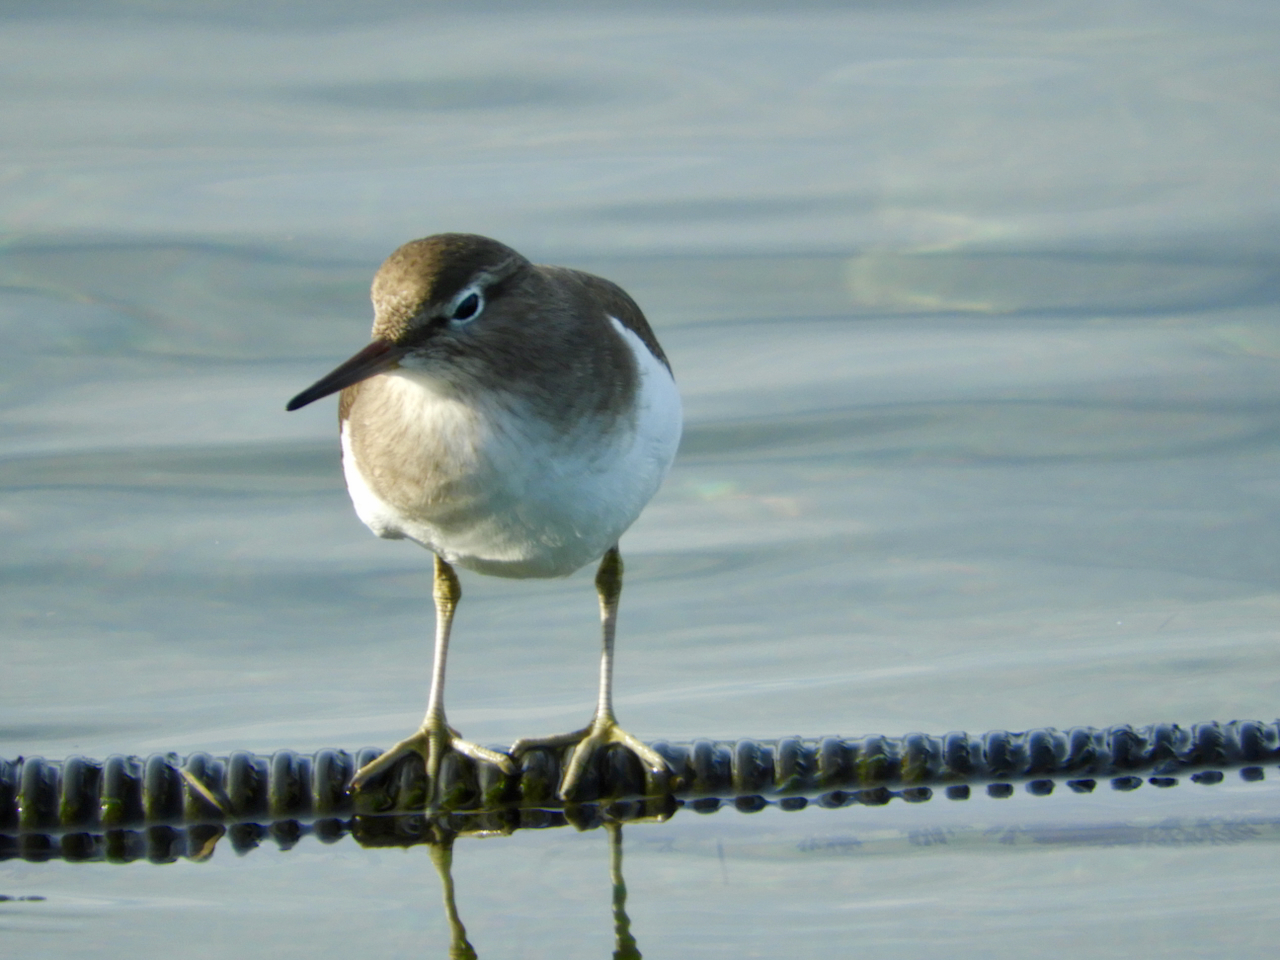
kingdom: Animalia
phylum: Chordata
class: Aves
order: Charadriiformes
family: Scolopacidae
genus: Actitis
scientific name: Actitis hypoleucos
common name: Common sandpiper
